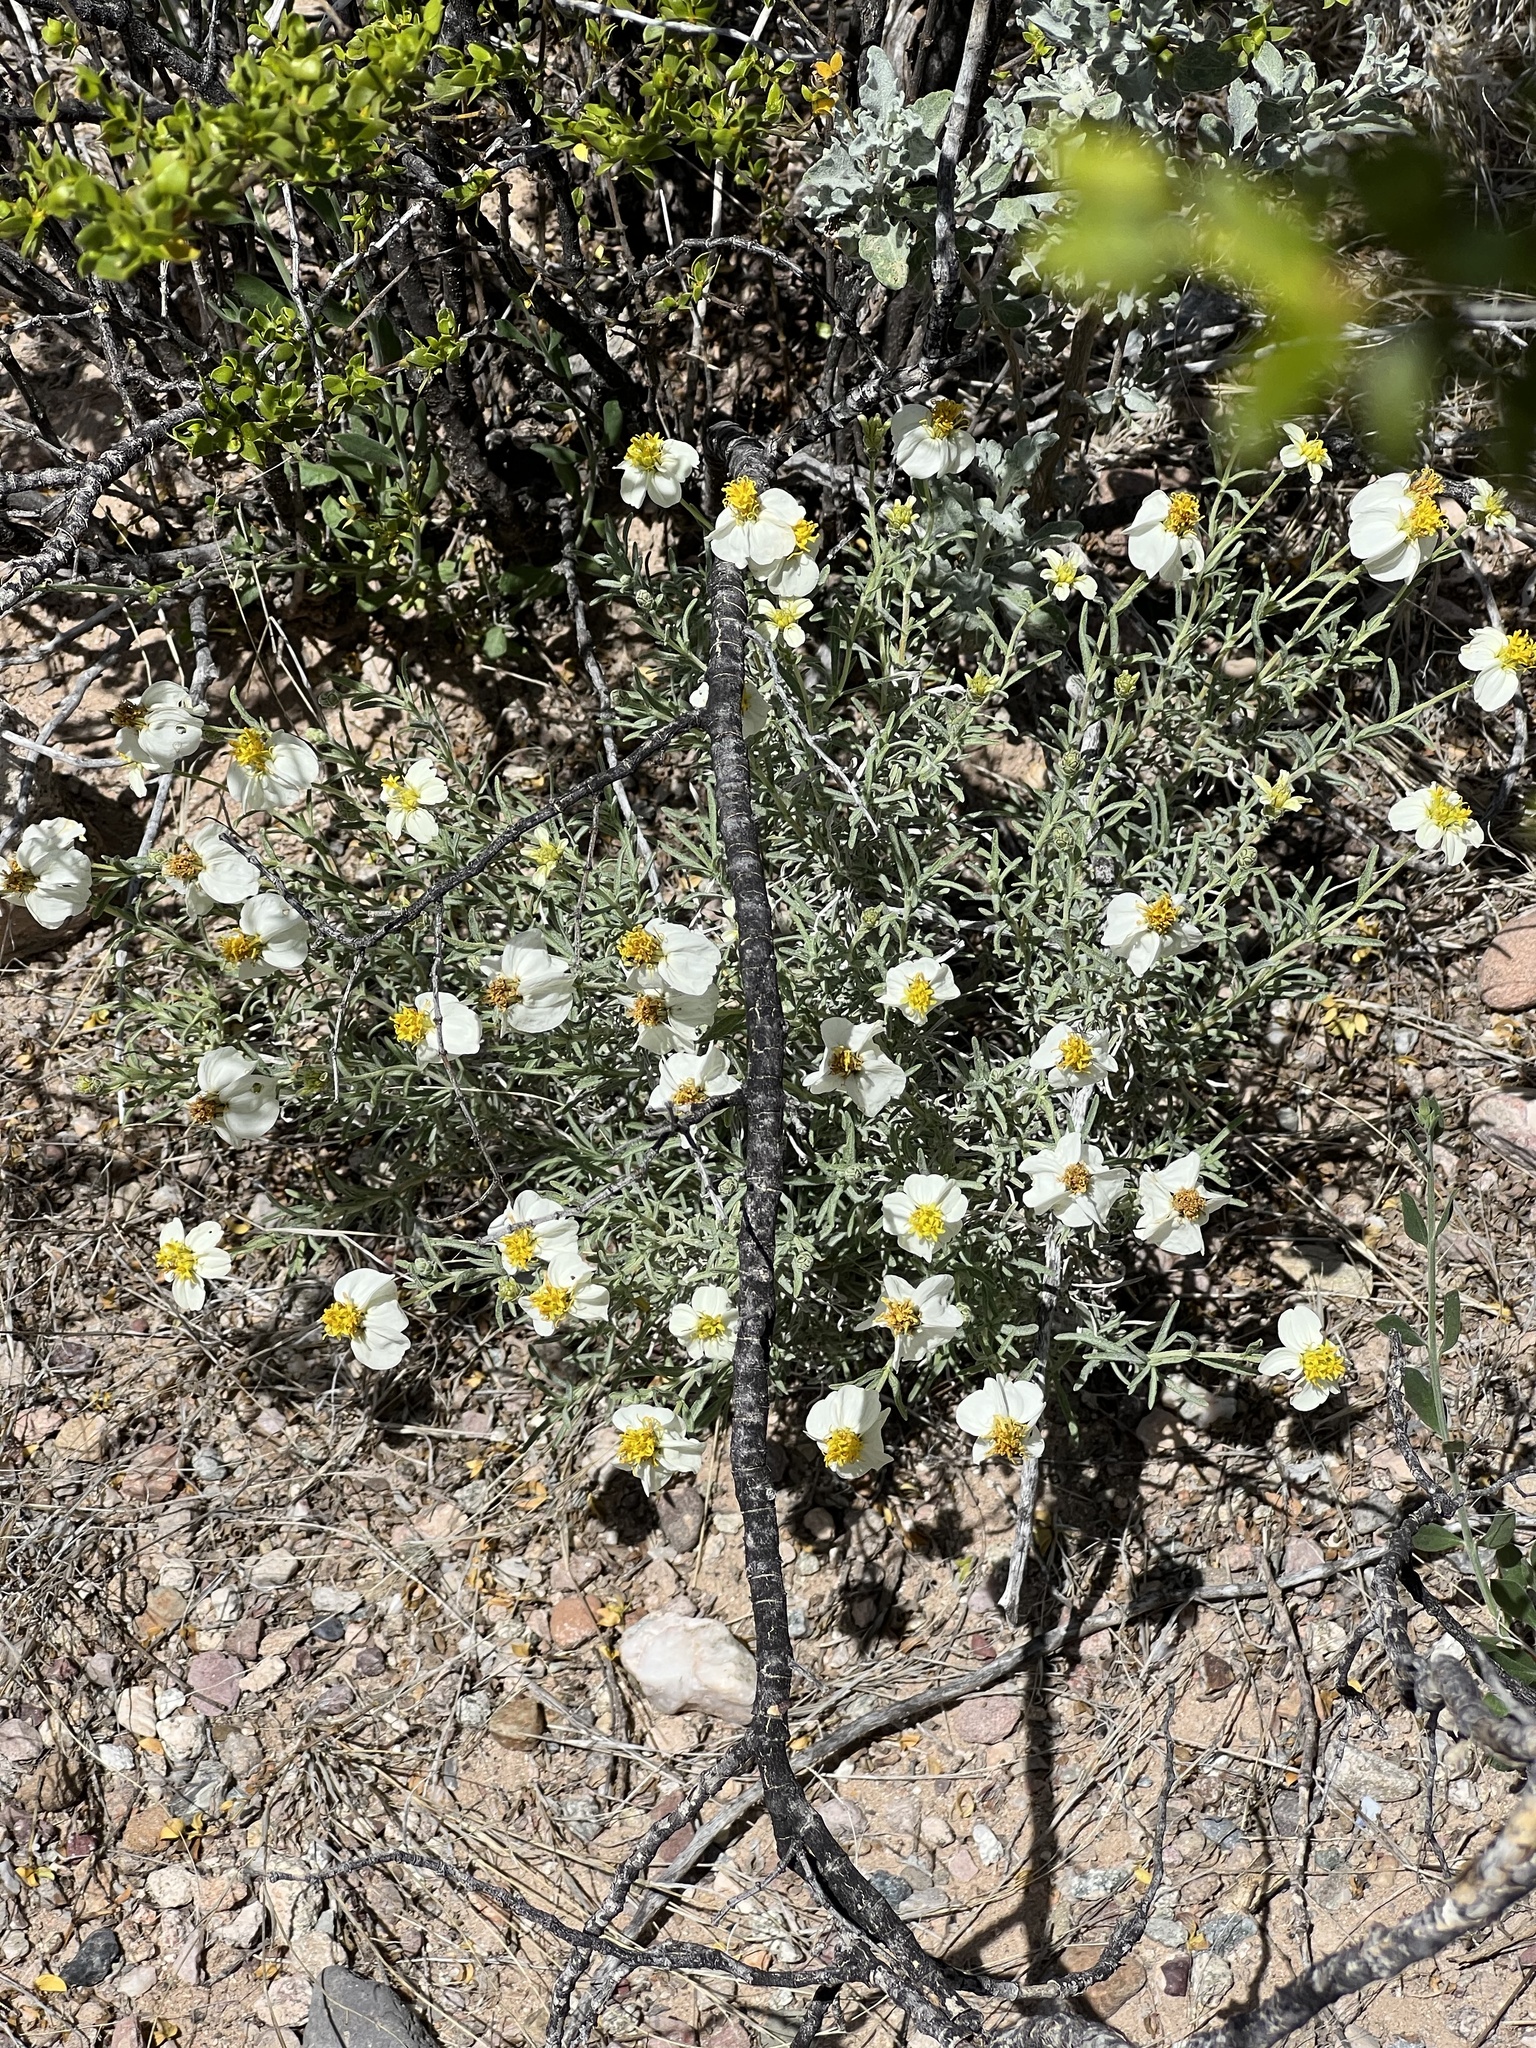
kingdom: Plantae
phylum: Tracheophyta
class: Magnoliopsida
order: Asterales
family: Asteraceae
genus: Zinnia
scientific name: Zinnia acerosa
